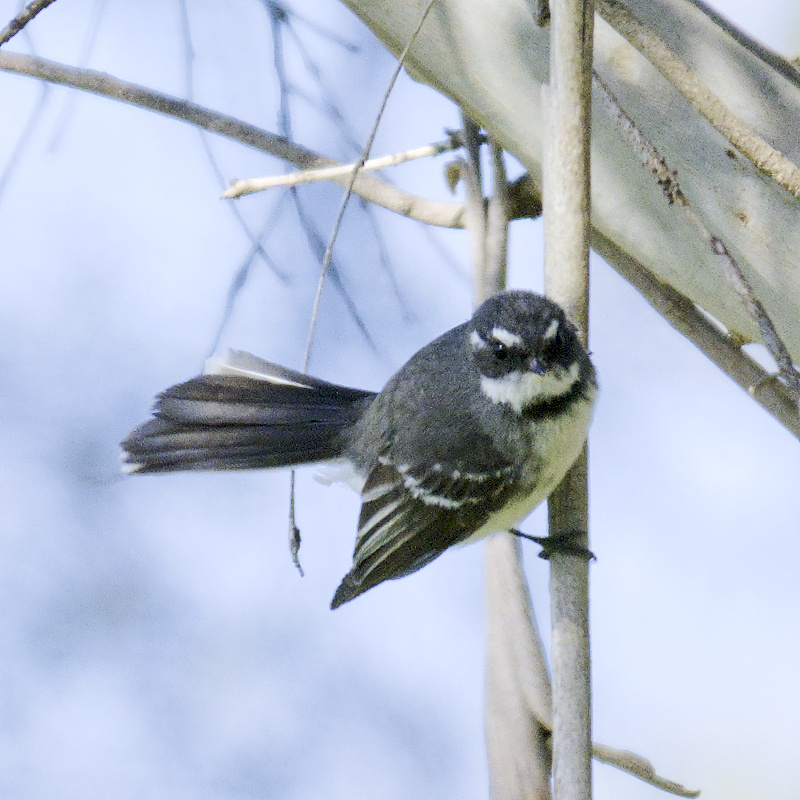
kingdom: Animalia
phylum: Chordata
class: Aves
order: Passeriformes
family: Rhipiduridae
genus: Rhipidura
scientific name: Rhipidura albiscapa
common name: Grey fantail
